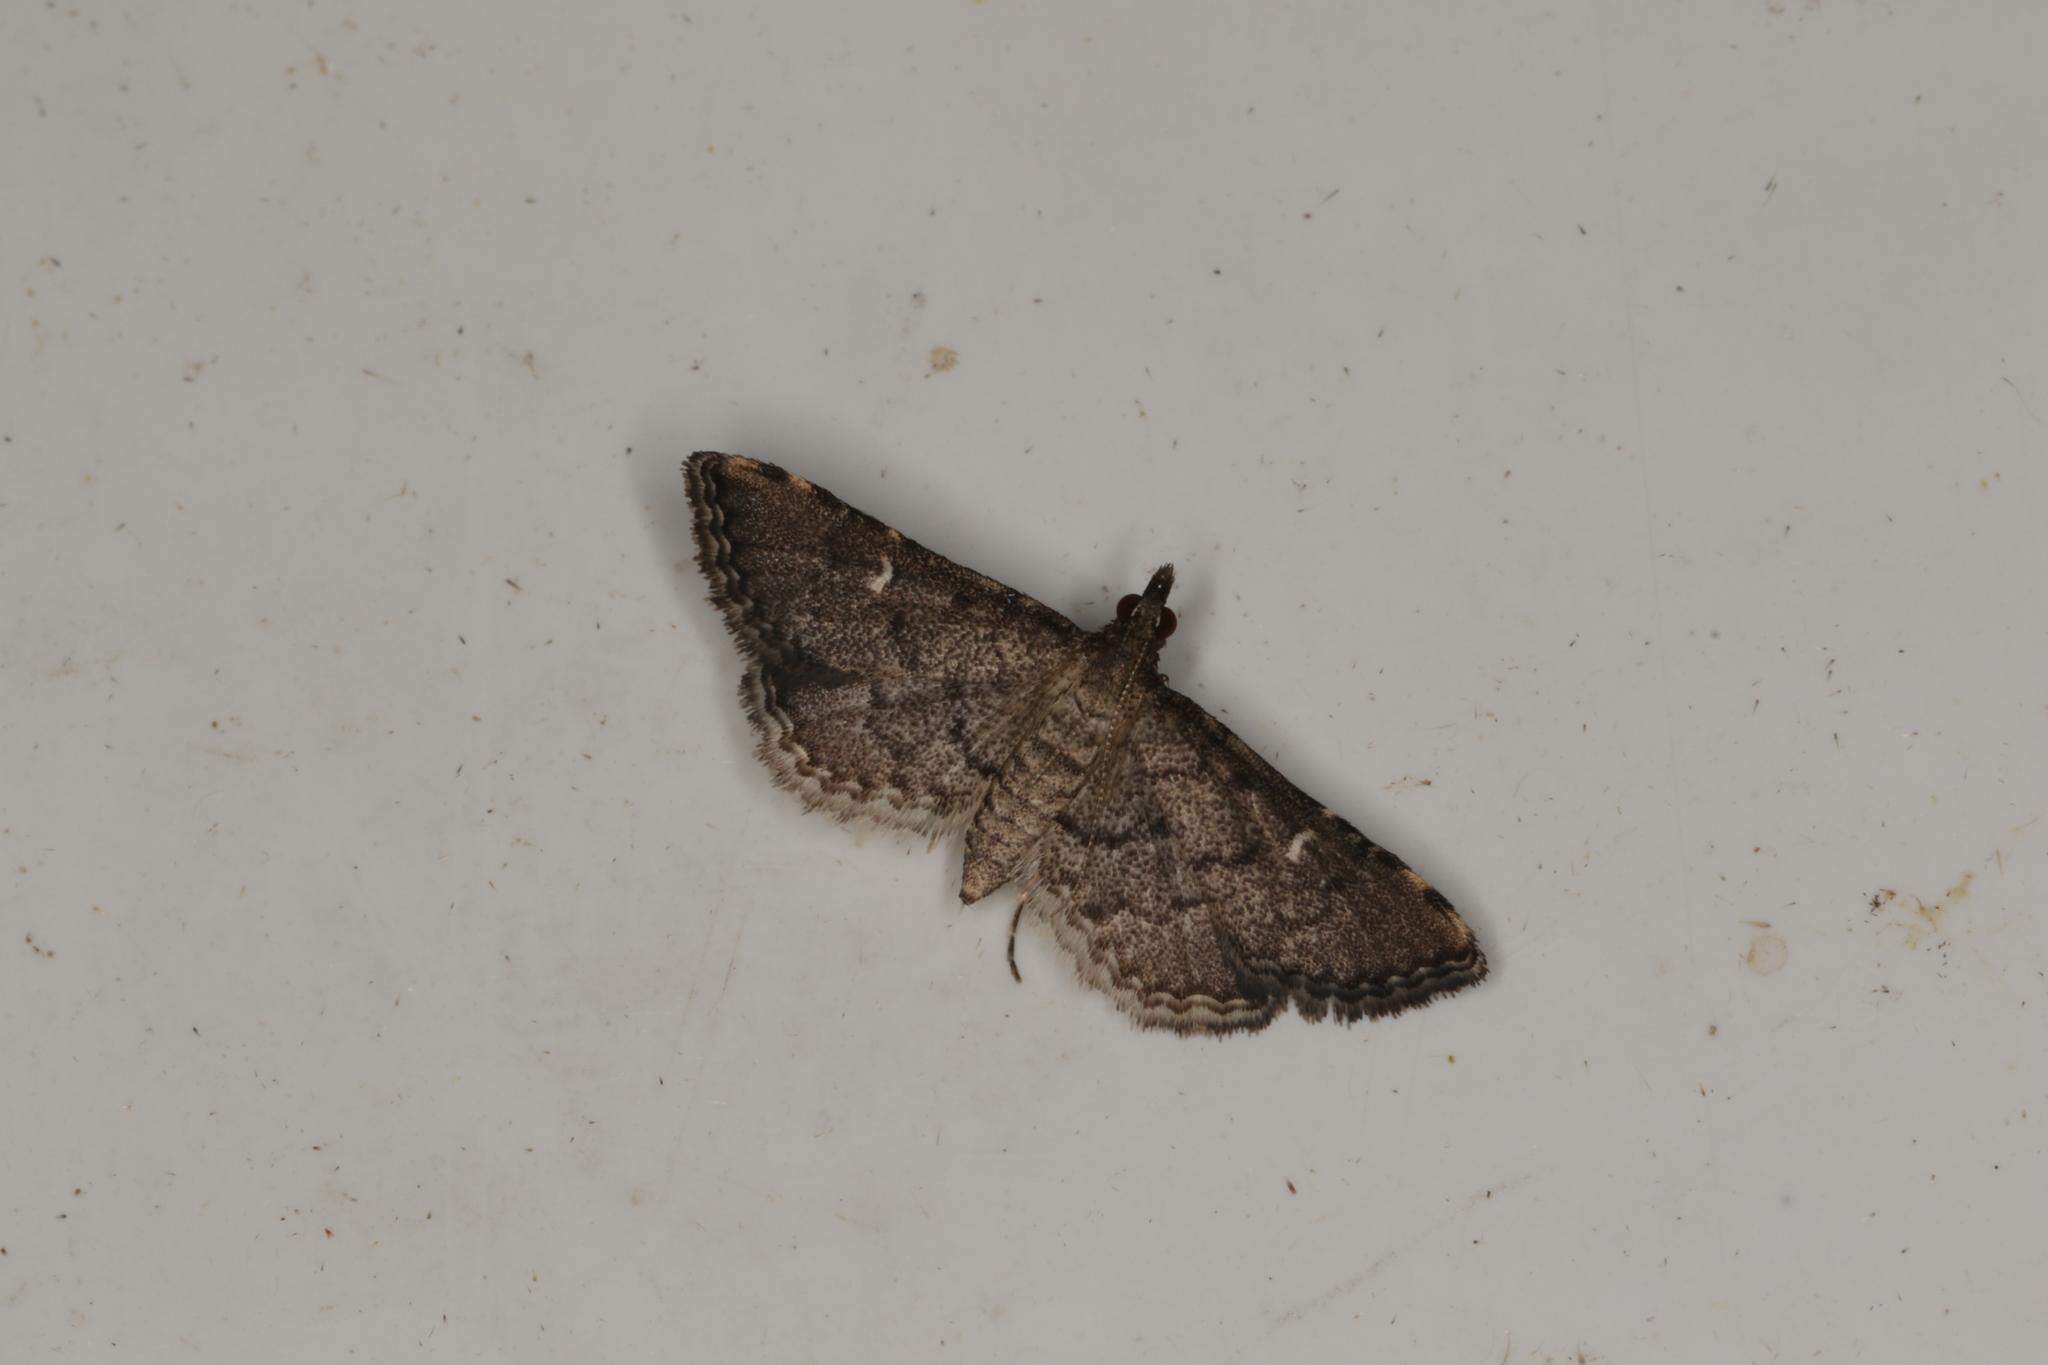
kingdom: Animalia
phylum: Arthropoda
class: Insecta
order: Lepidoptera
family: Crambidae
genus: Metasia
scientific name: Metasia capnochroa
